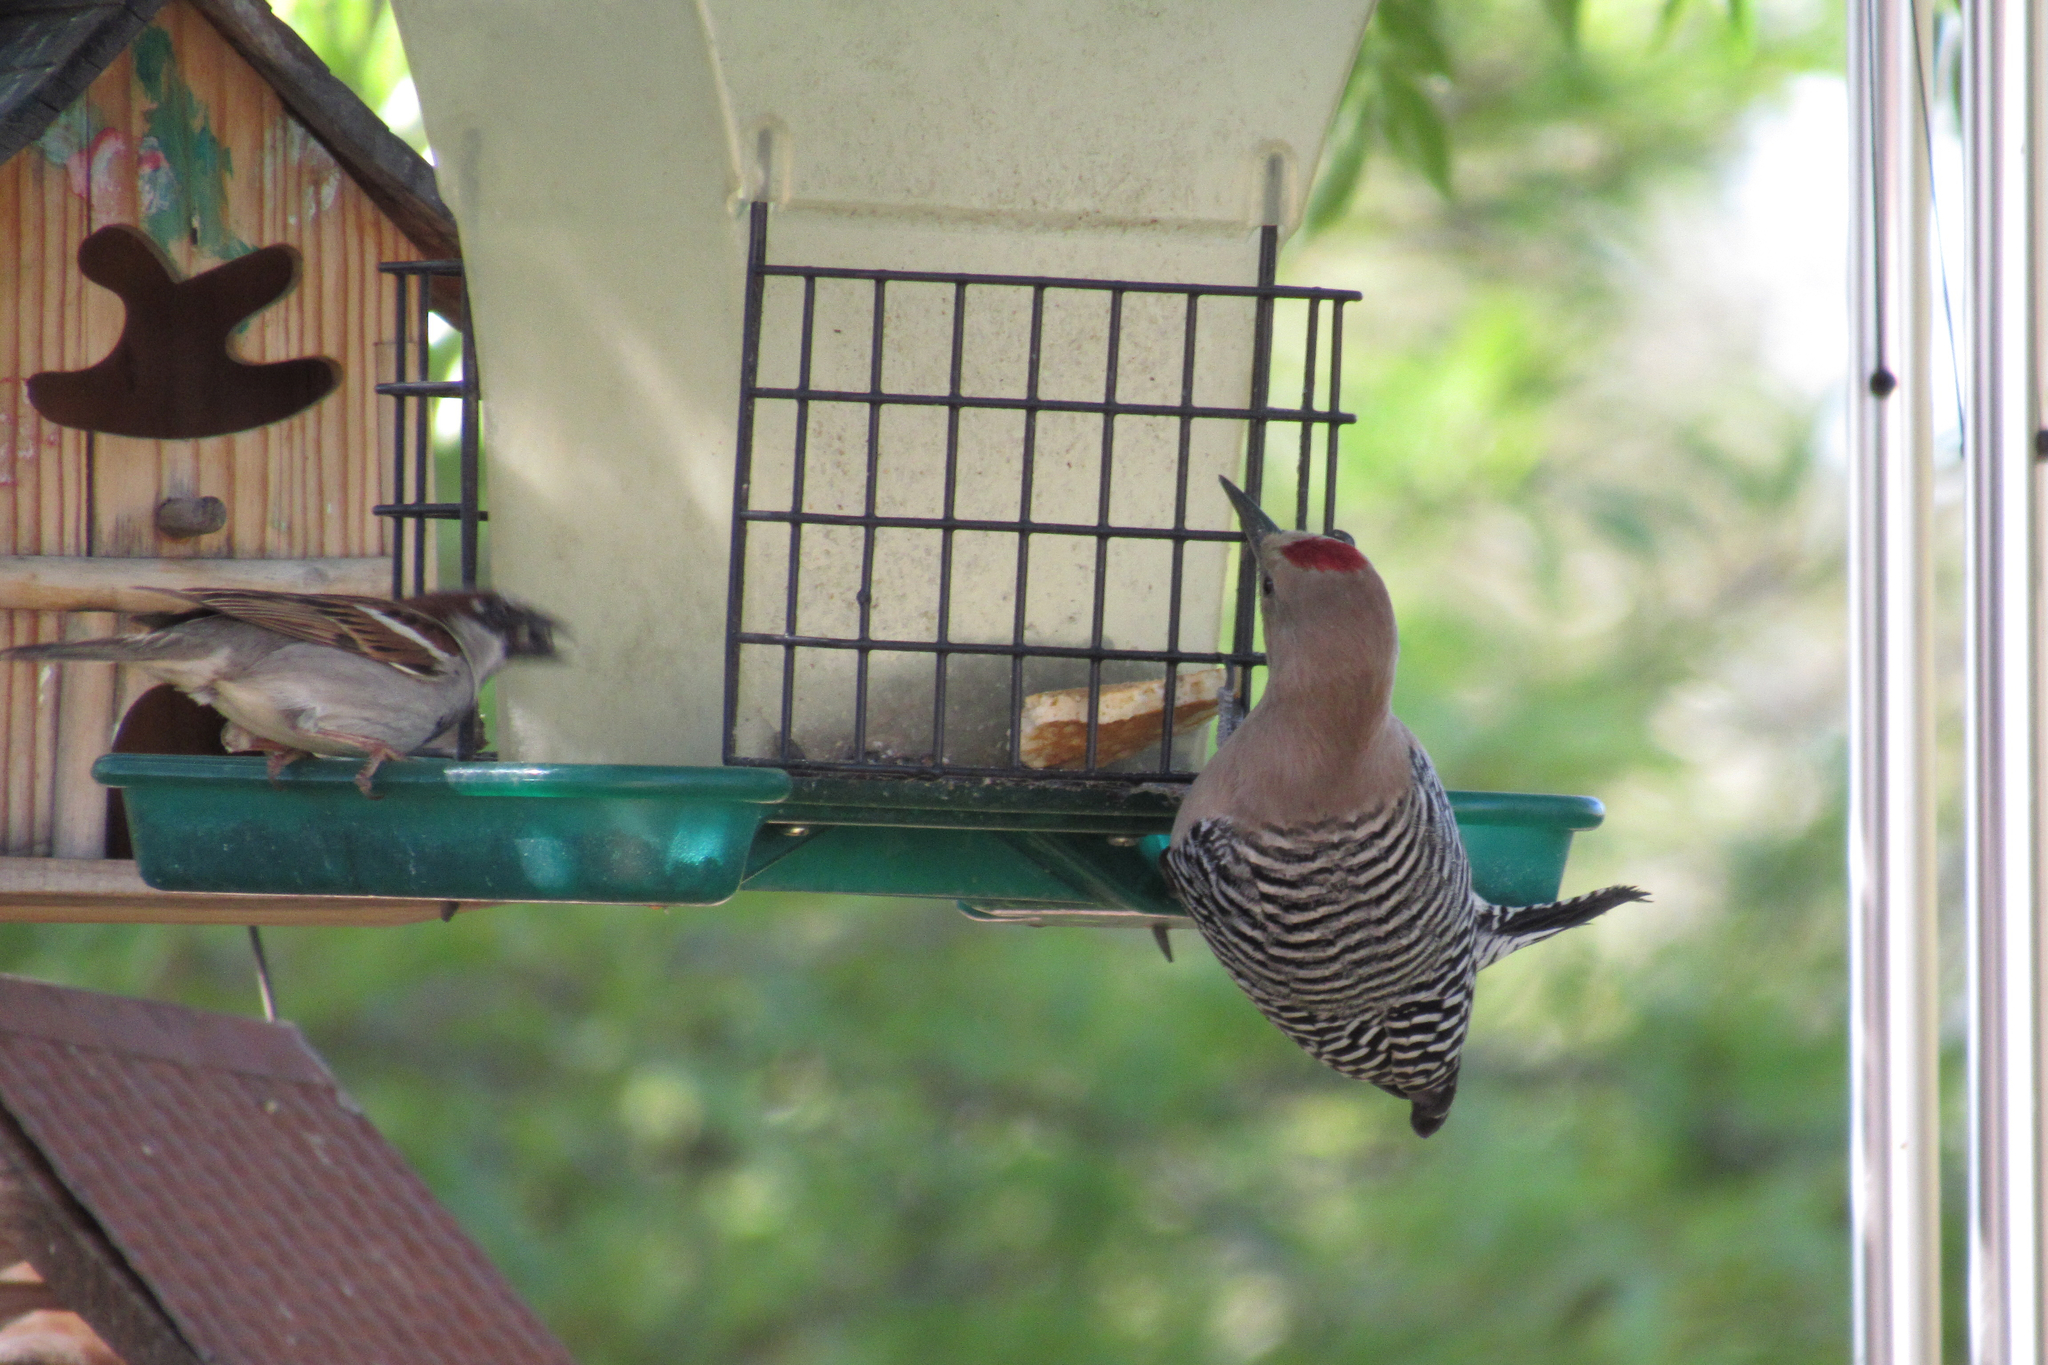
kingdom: Animalia
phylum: Chordata
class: Aves
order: Piciformes
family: Picidae
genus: Melanerpes
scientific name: Melanerpes uropygialis
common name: Gila woodpecker
